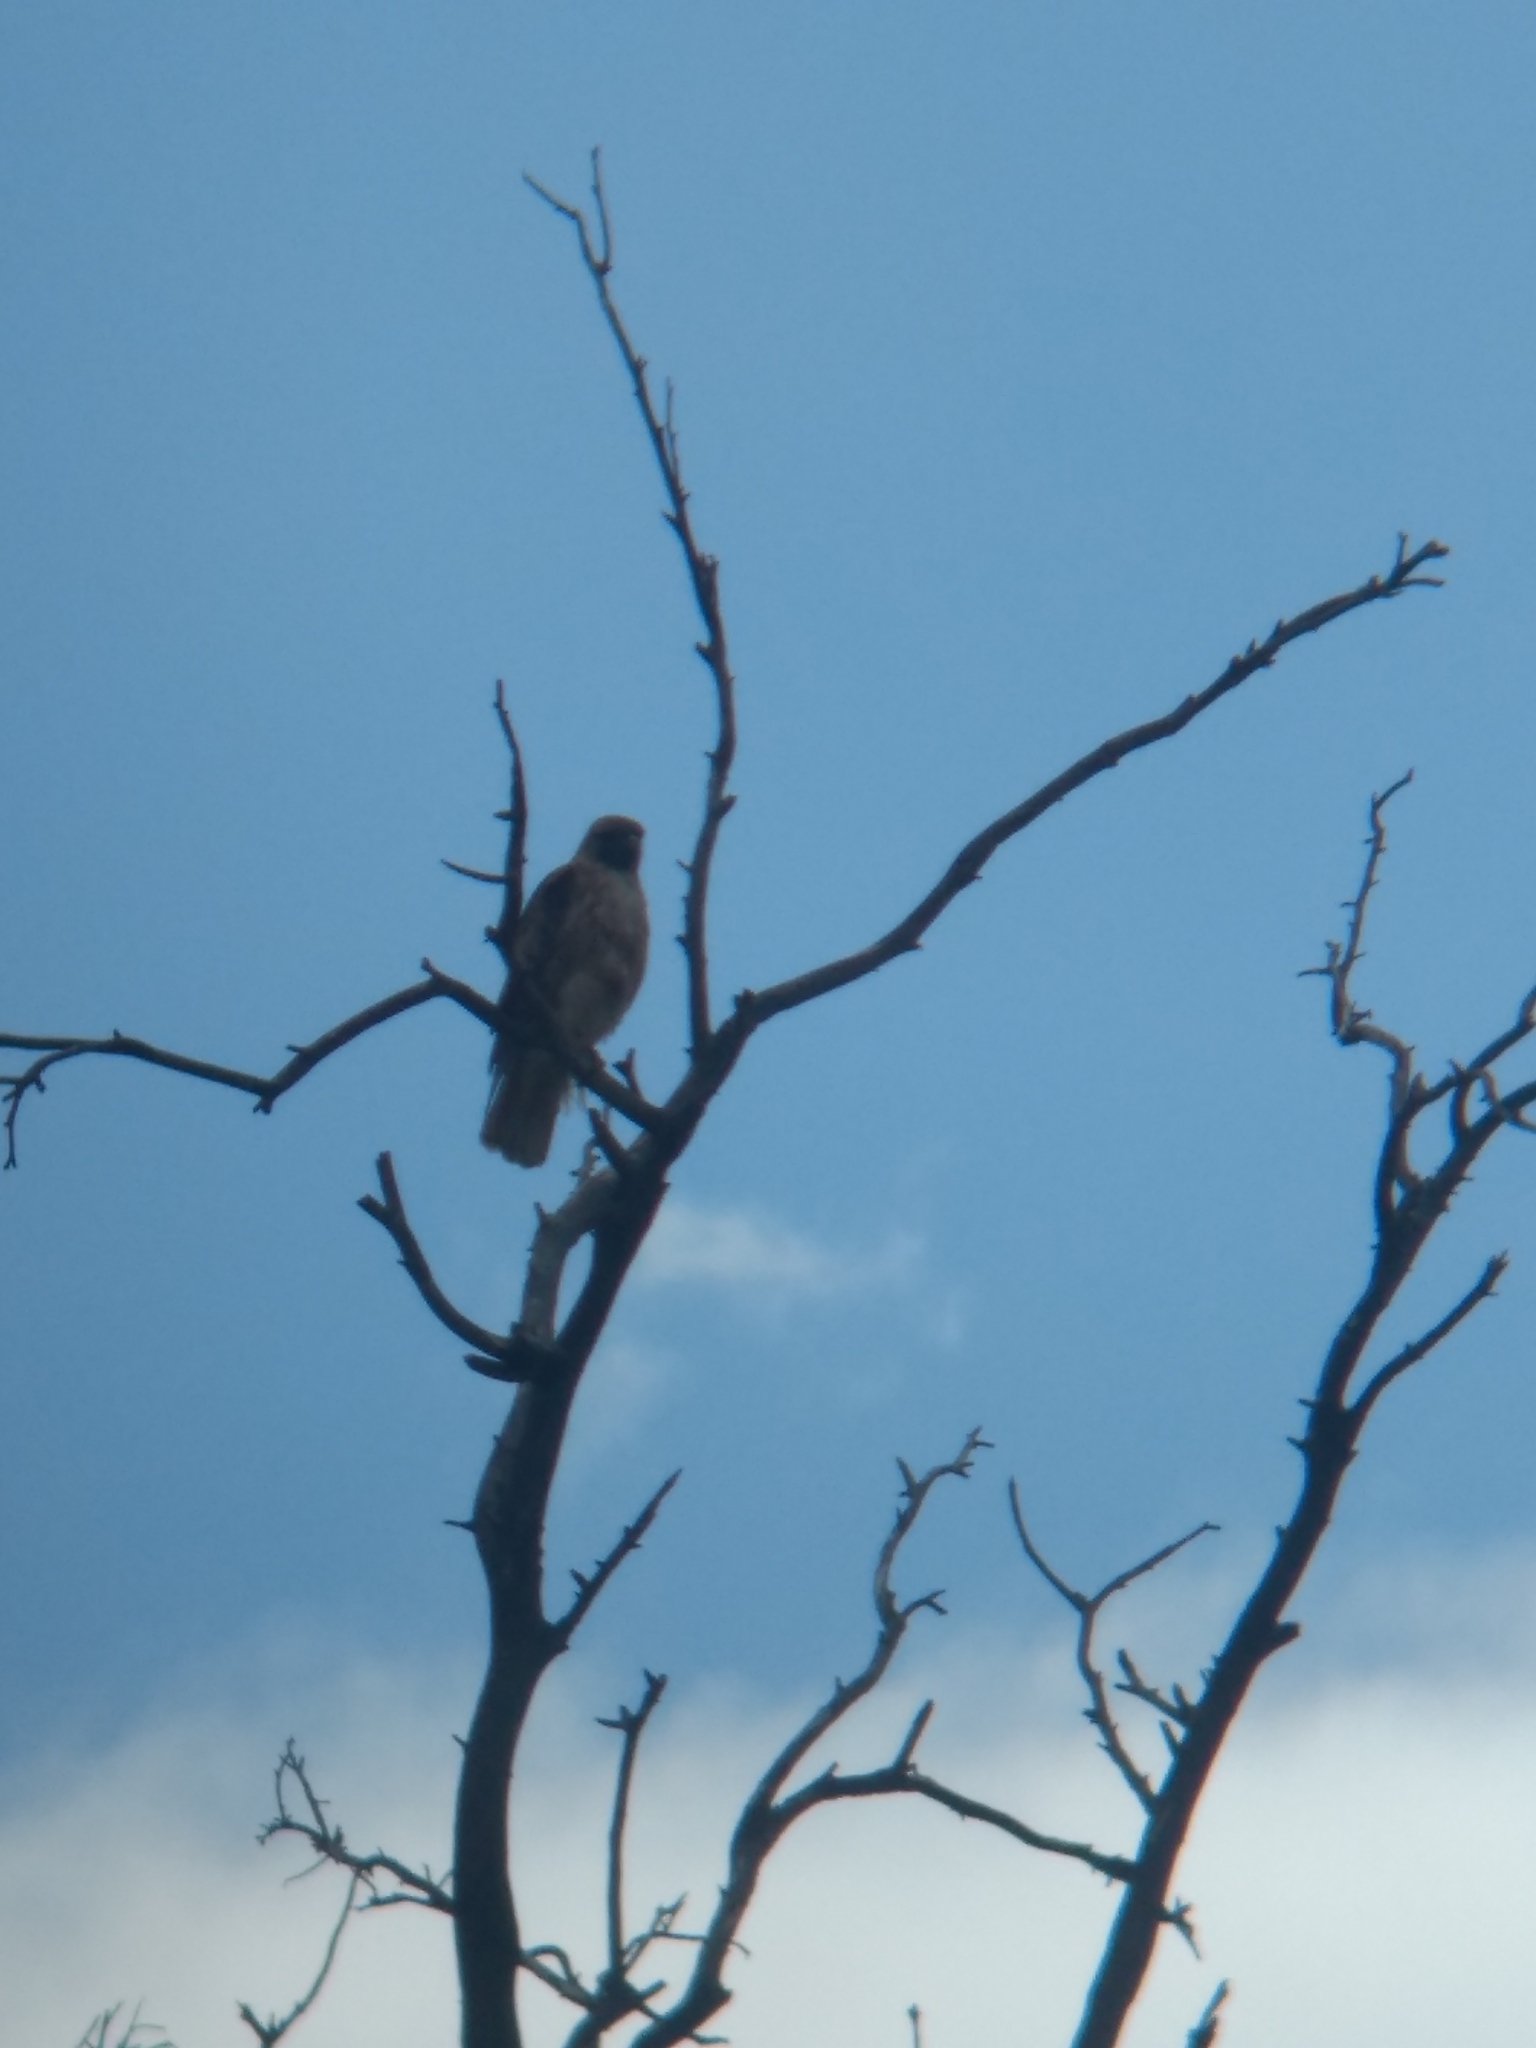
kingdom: Animalia
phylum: Chordata
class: Aves
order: Accipitriformes
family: Accipitridae
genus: Buteo
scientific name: Buteo jamaicensis
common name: Red-tailed hawk
